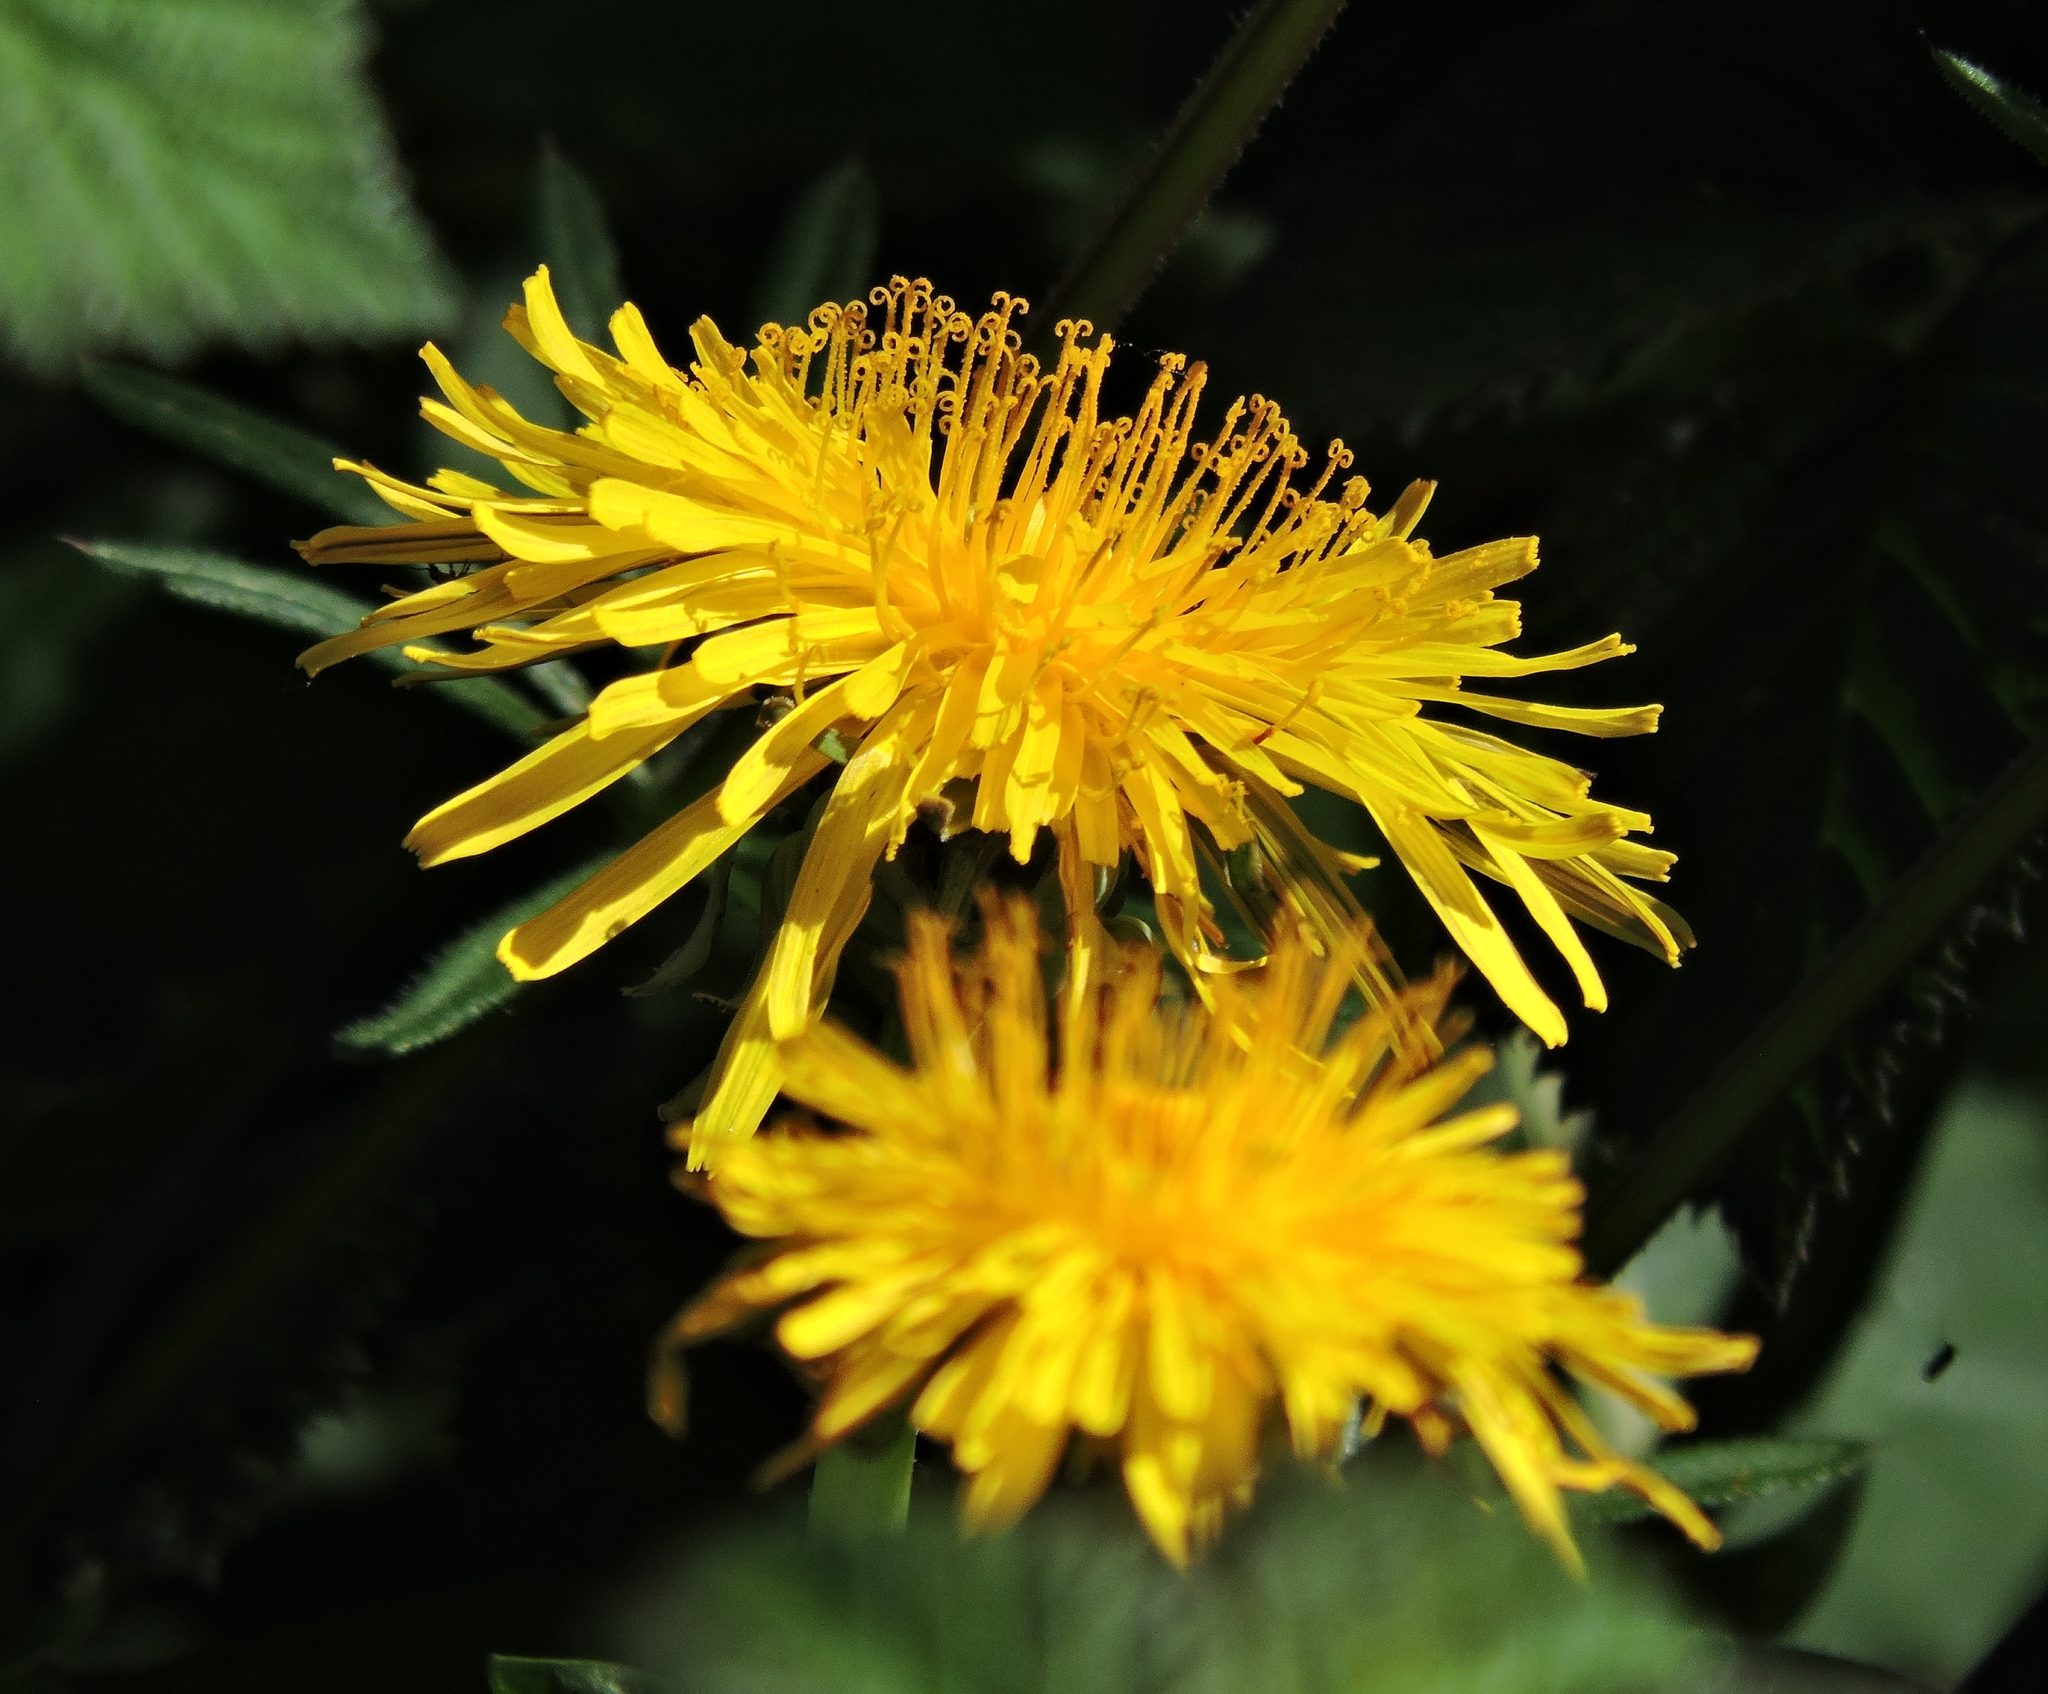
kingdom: Plantae
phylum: Tracheophyta
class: Magnoliopsida
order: Asterales
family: Asteraceae
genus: Taraxacum
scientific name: Taraxacum officinale
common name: Common dandelion
